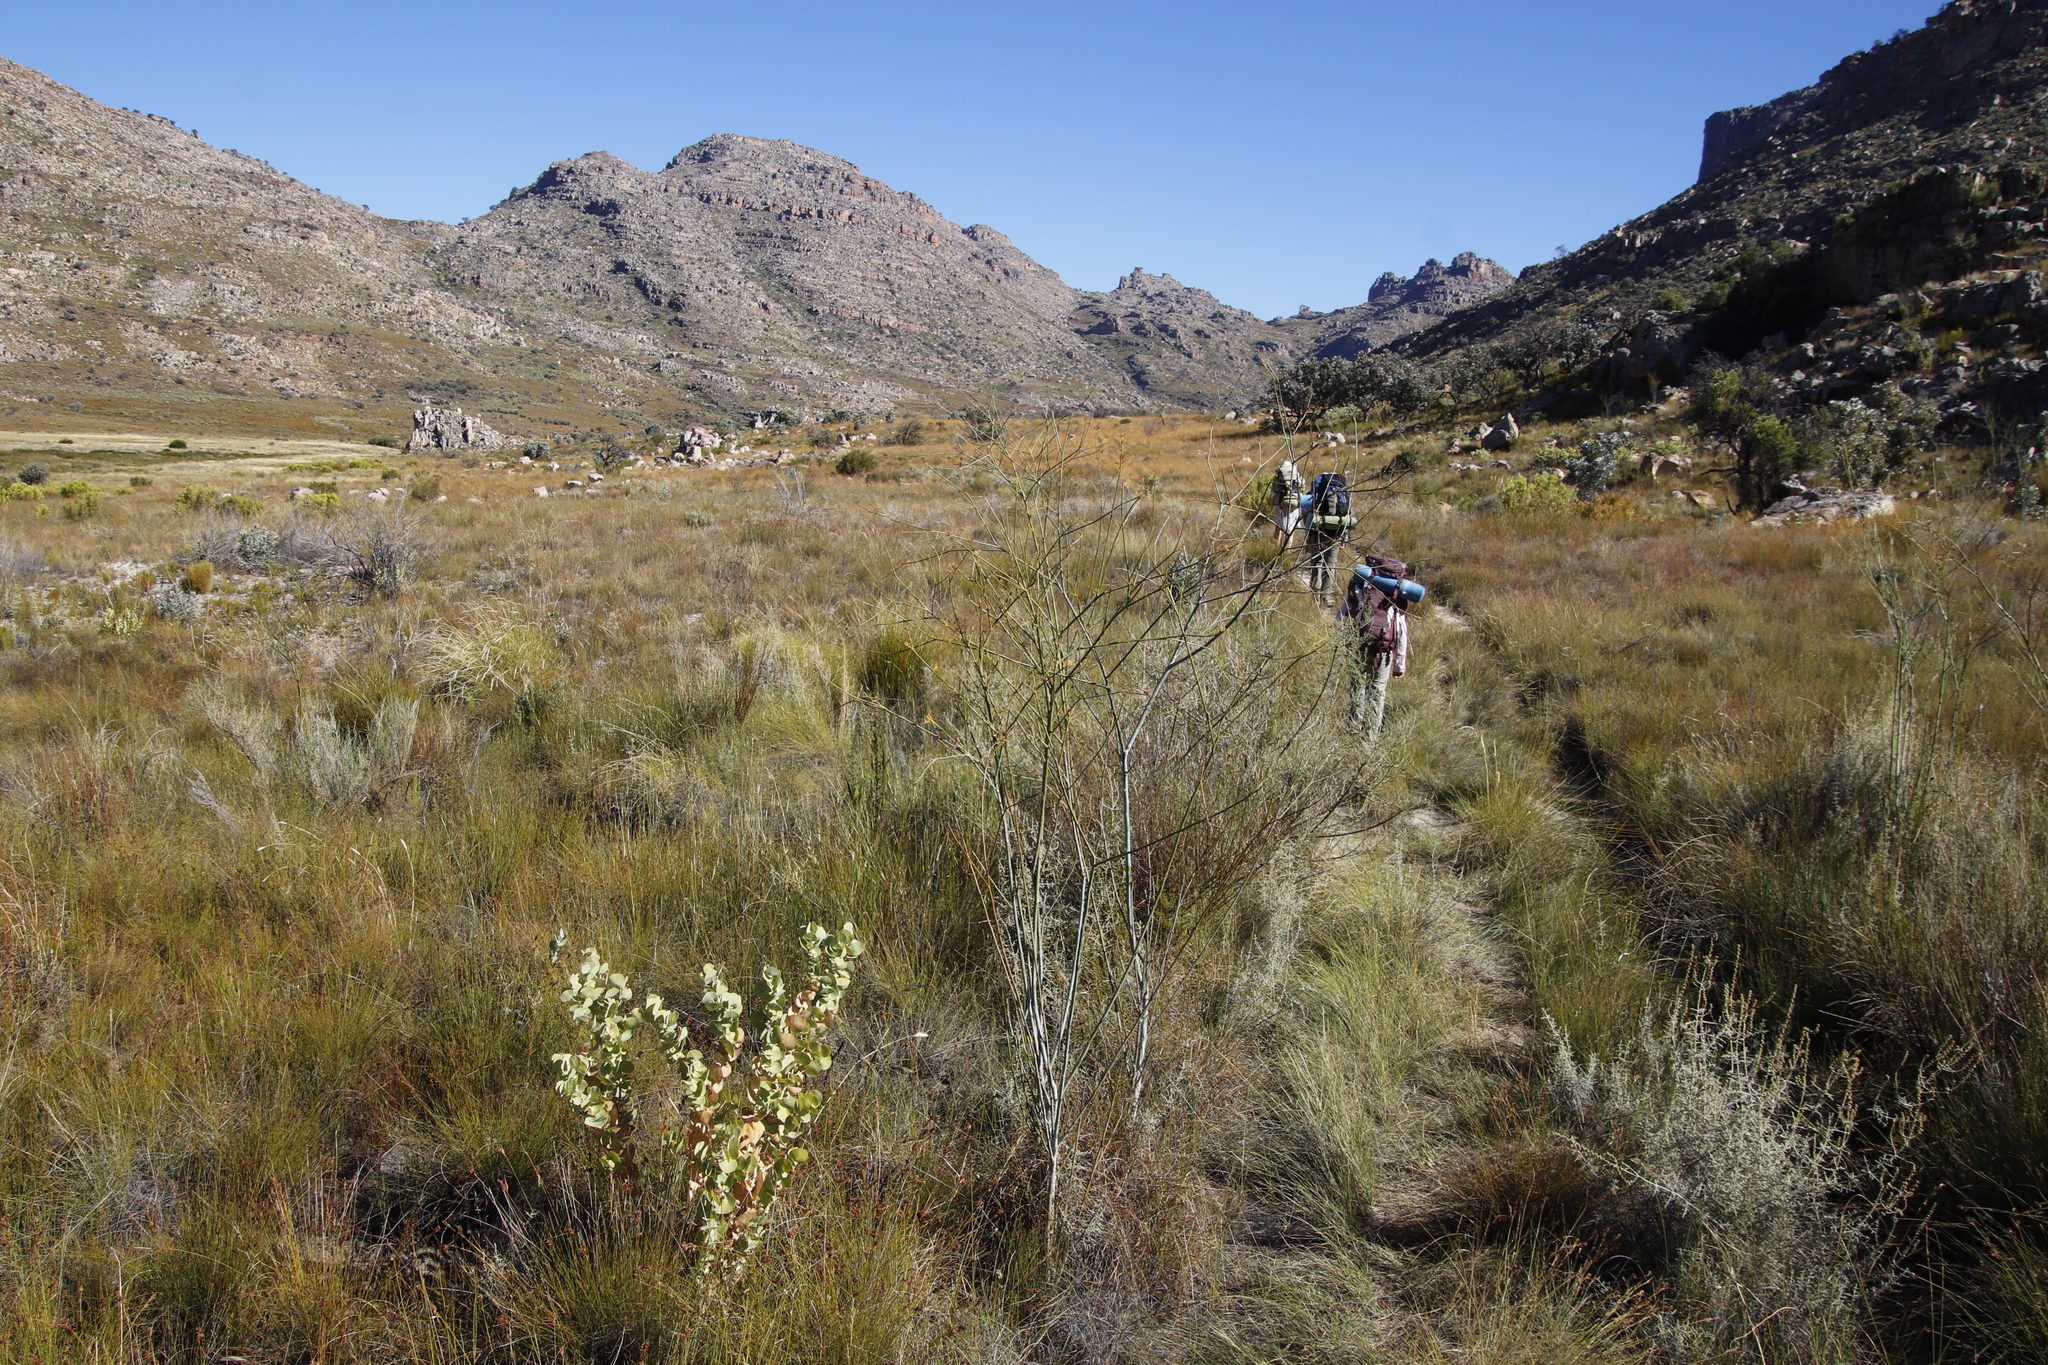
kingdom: Plantae
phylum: Tracheophyta
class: Magnoliopsida
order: Santalales
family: Thesiaceae
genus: Thesium
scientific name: Thesium strictum
